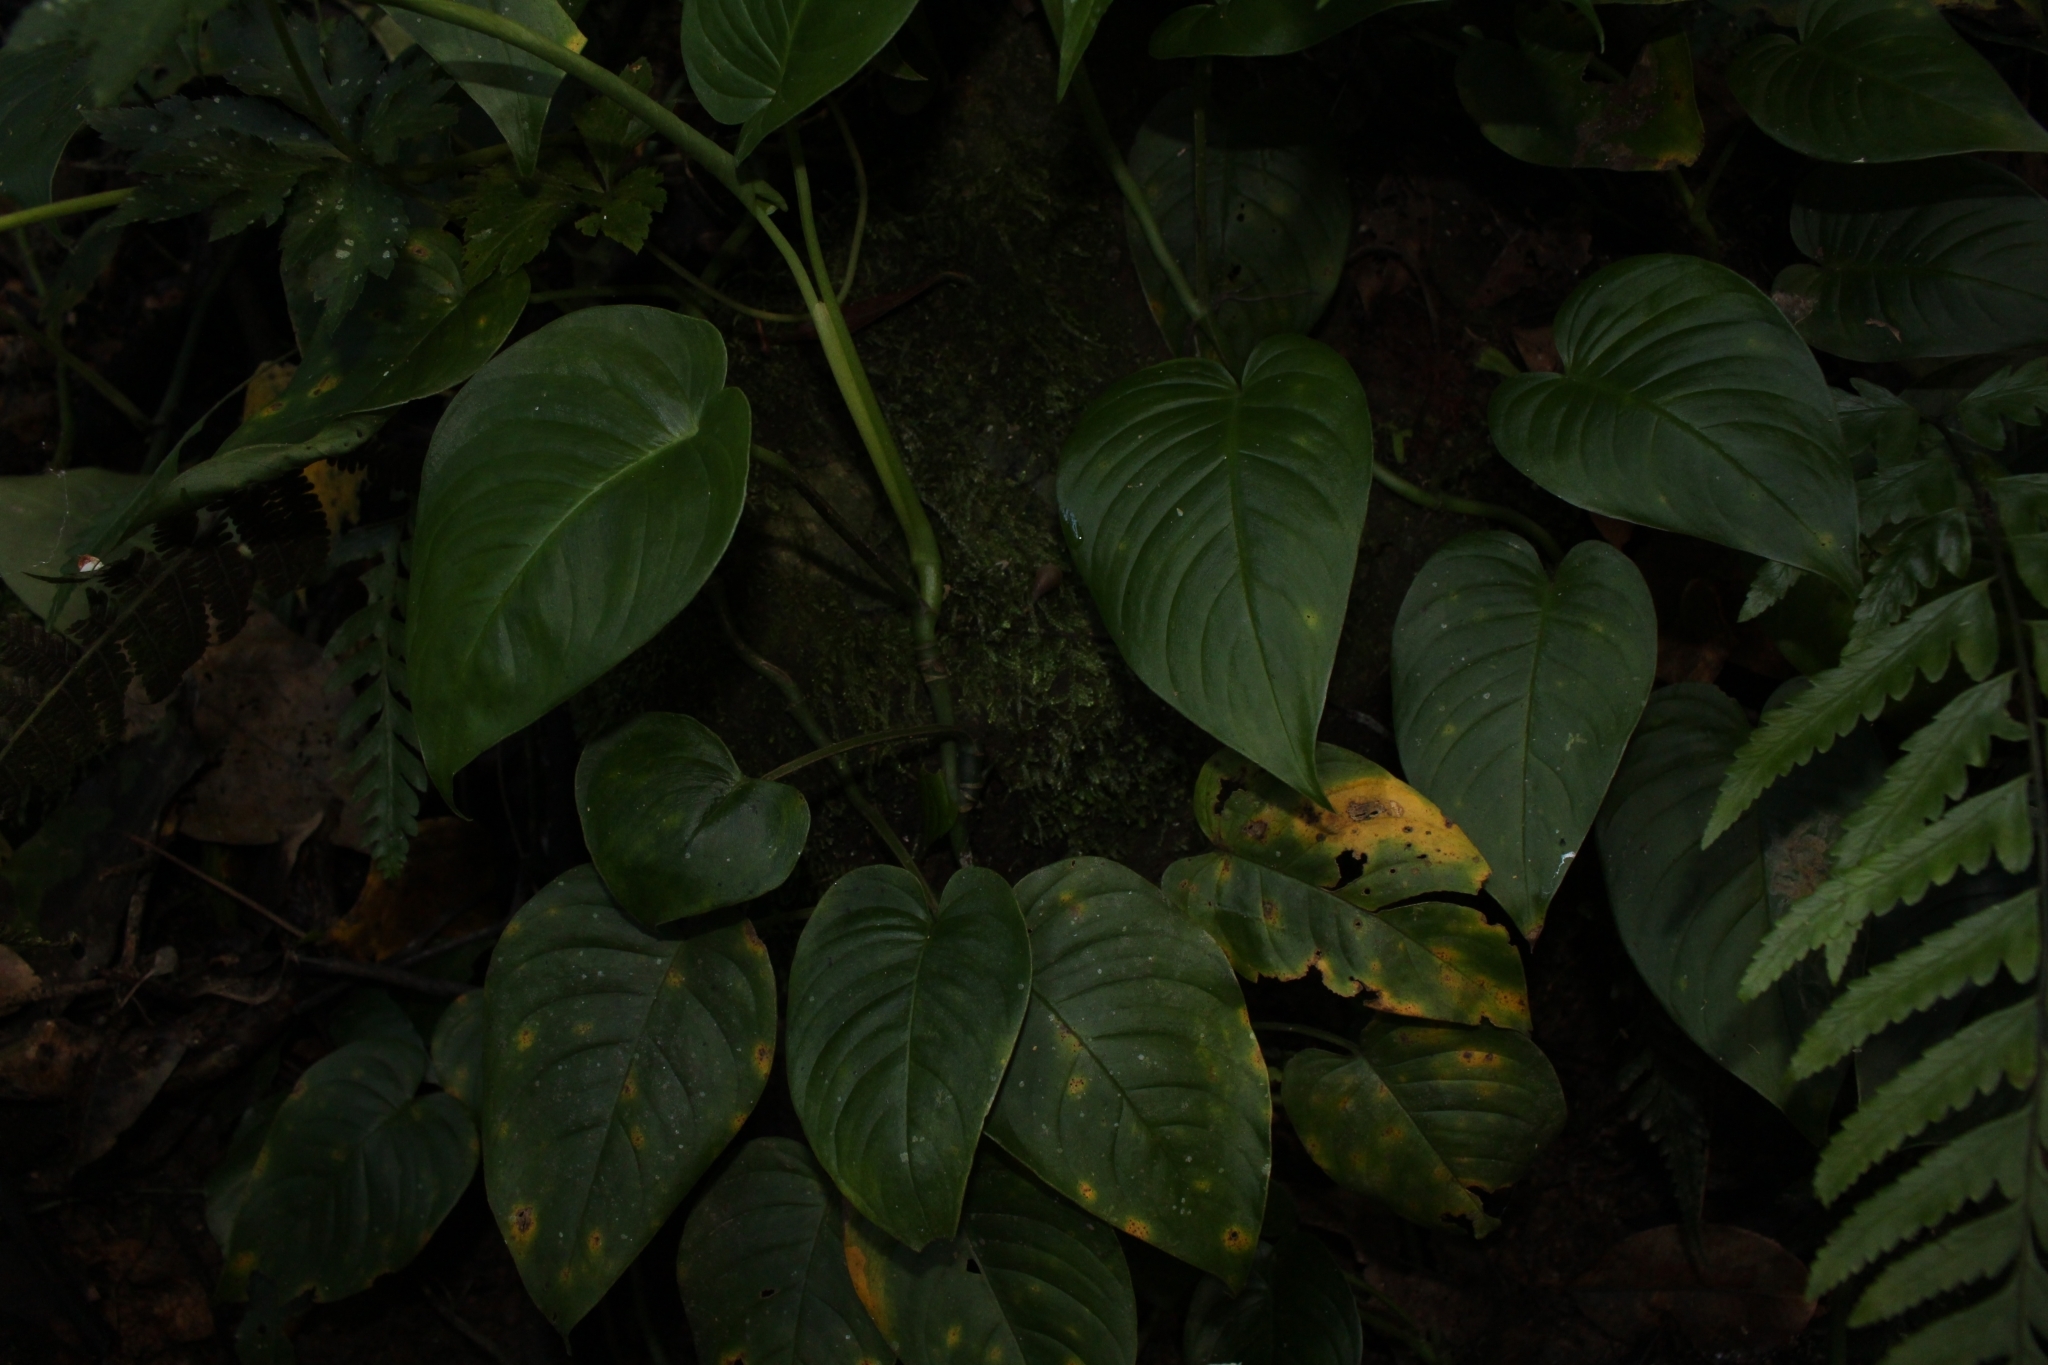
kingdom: Plantae
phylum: Tracheophyta
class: Liliopsida
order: Alismatales
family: Araceae
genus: Monstera
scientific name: Monstera wilsoniensis
